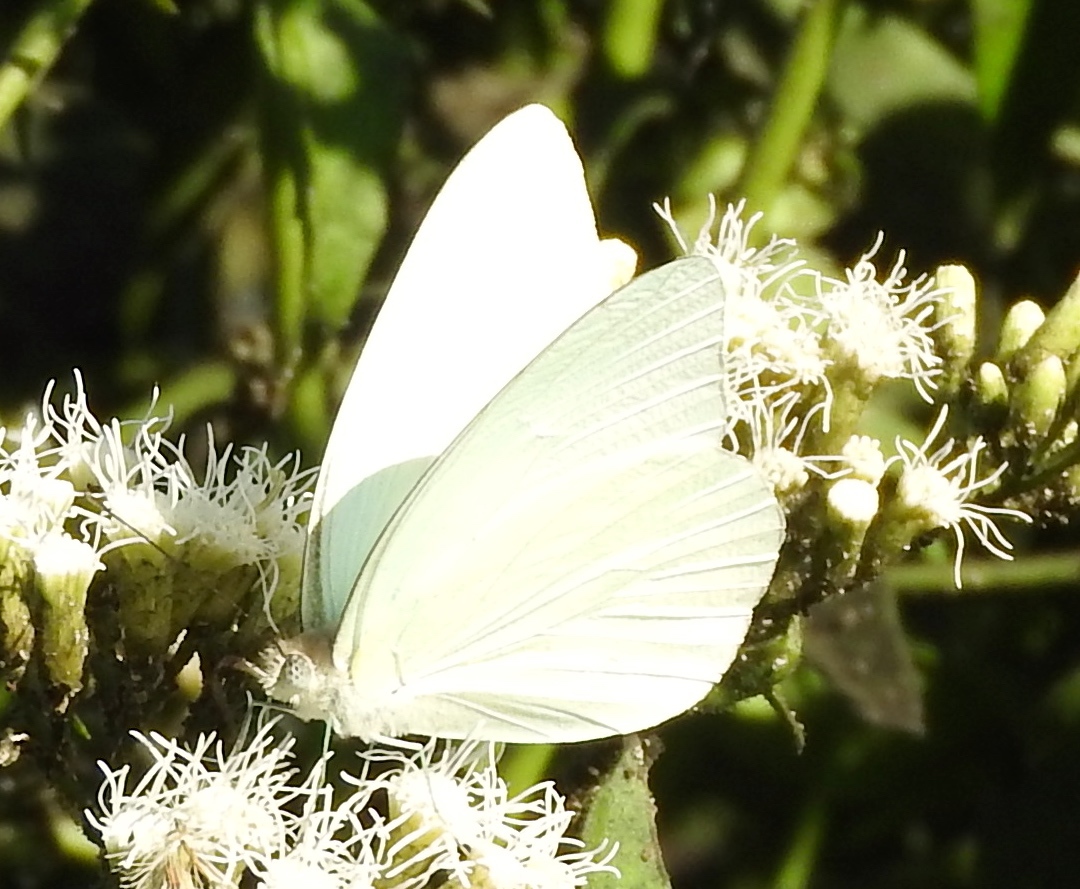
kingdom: Animalia
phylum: Arthropoda
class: Insecta
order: Lepidoptera
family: Pieridae
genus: Glutophrissa
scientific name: Glutophrissa drusilla
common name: Florida white
